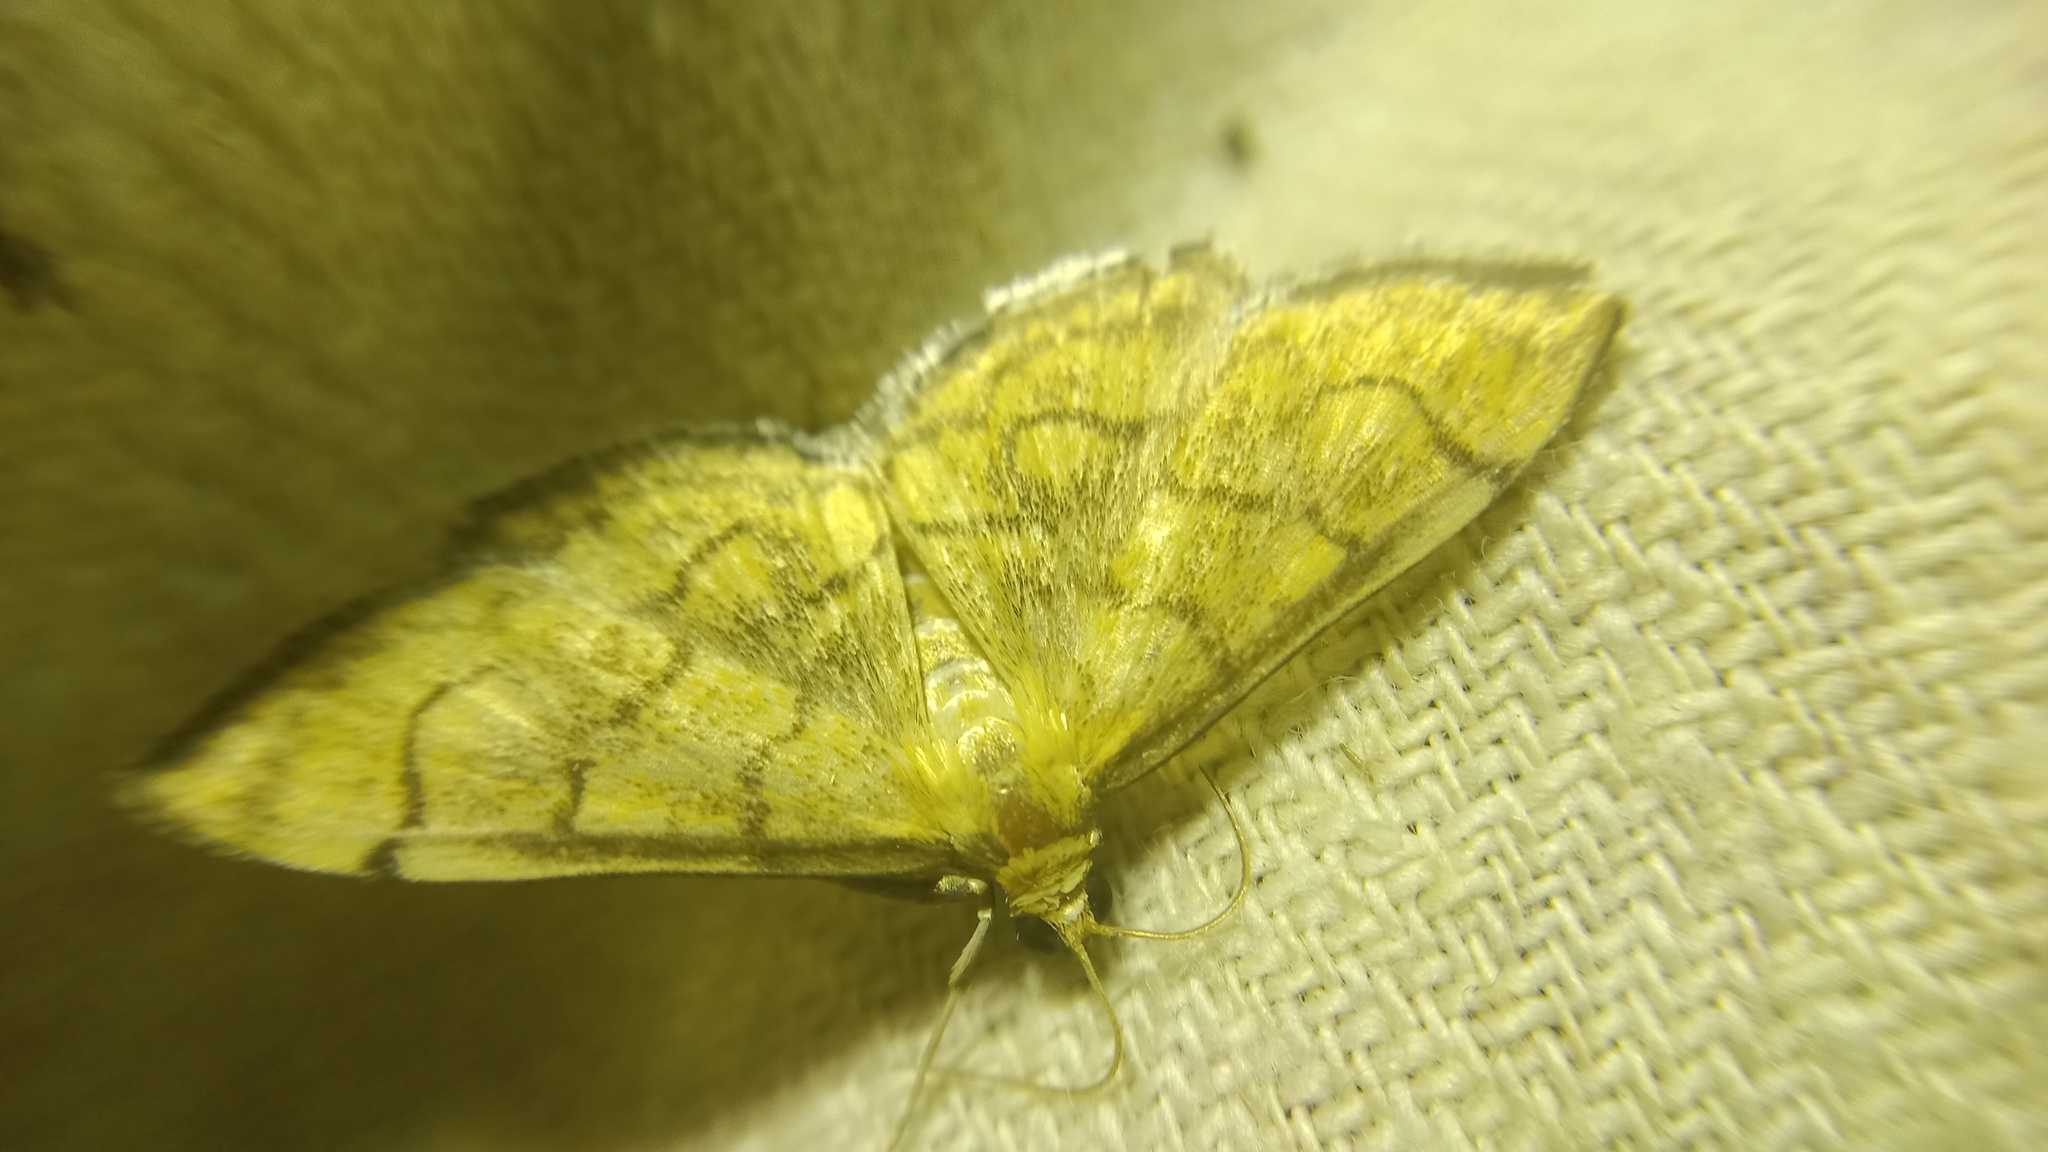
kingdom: Animalia
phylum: Arthropoda
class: Insecta
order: Lepidoptera
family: Crambidae
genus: Anania
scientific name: Anania verbascalis
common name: Golden pearl
